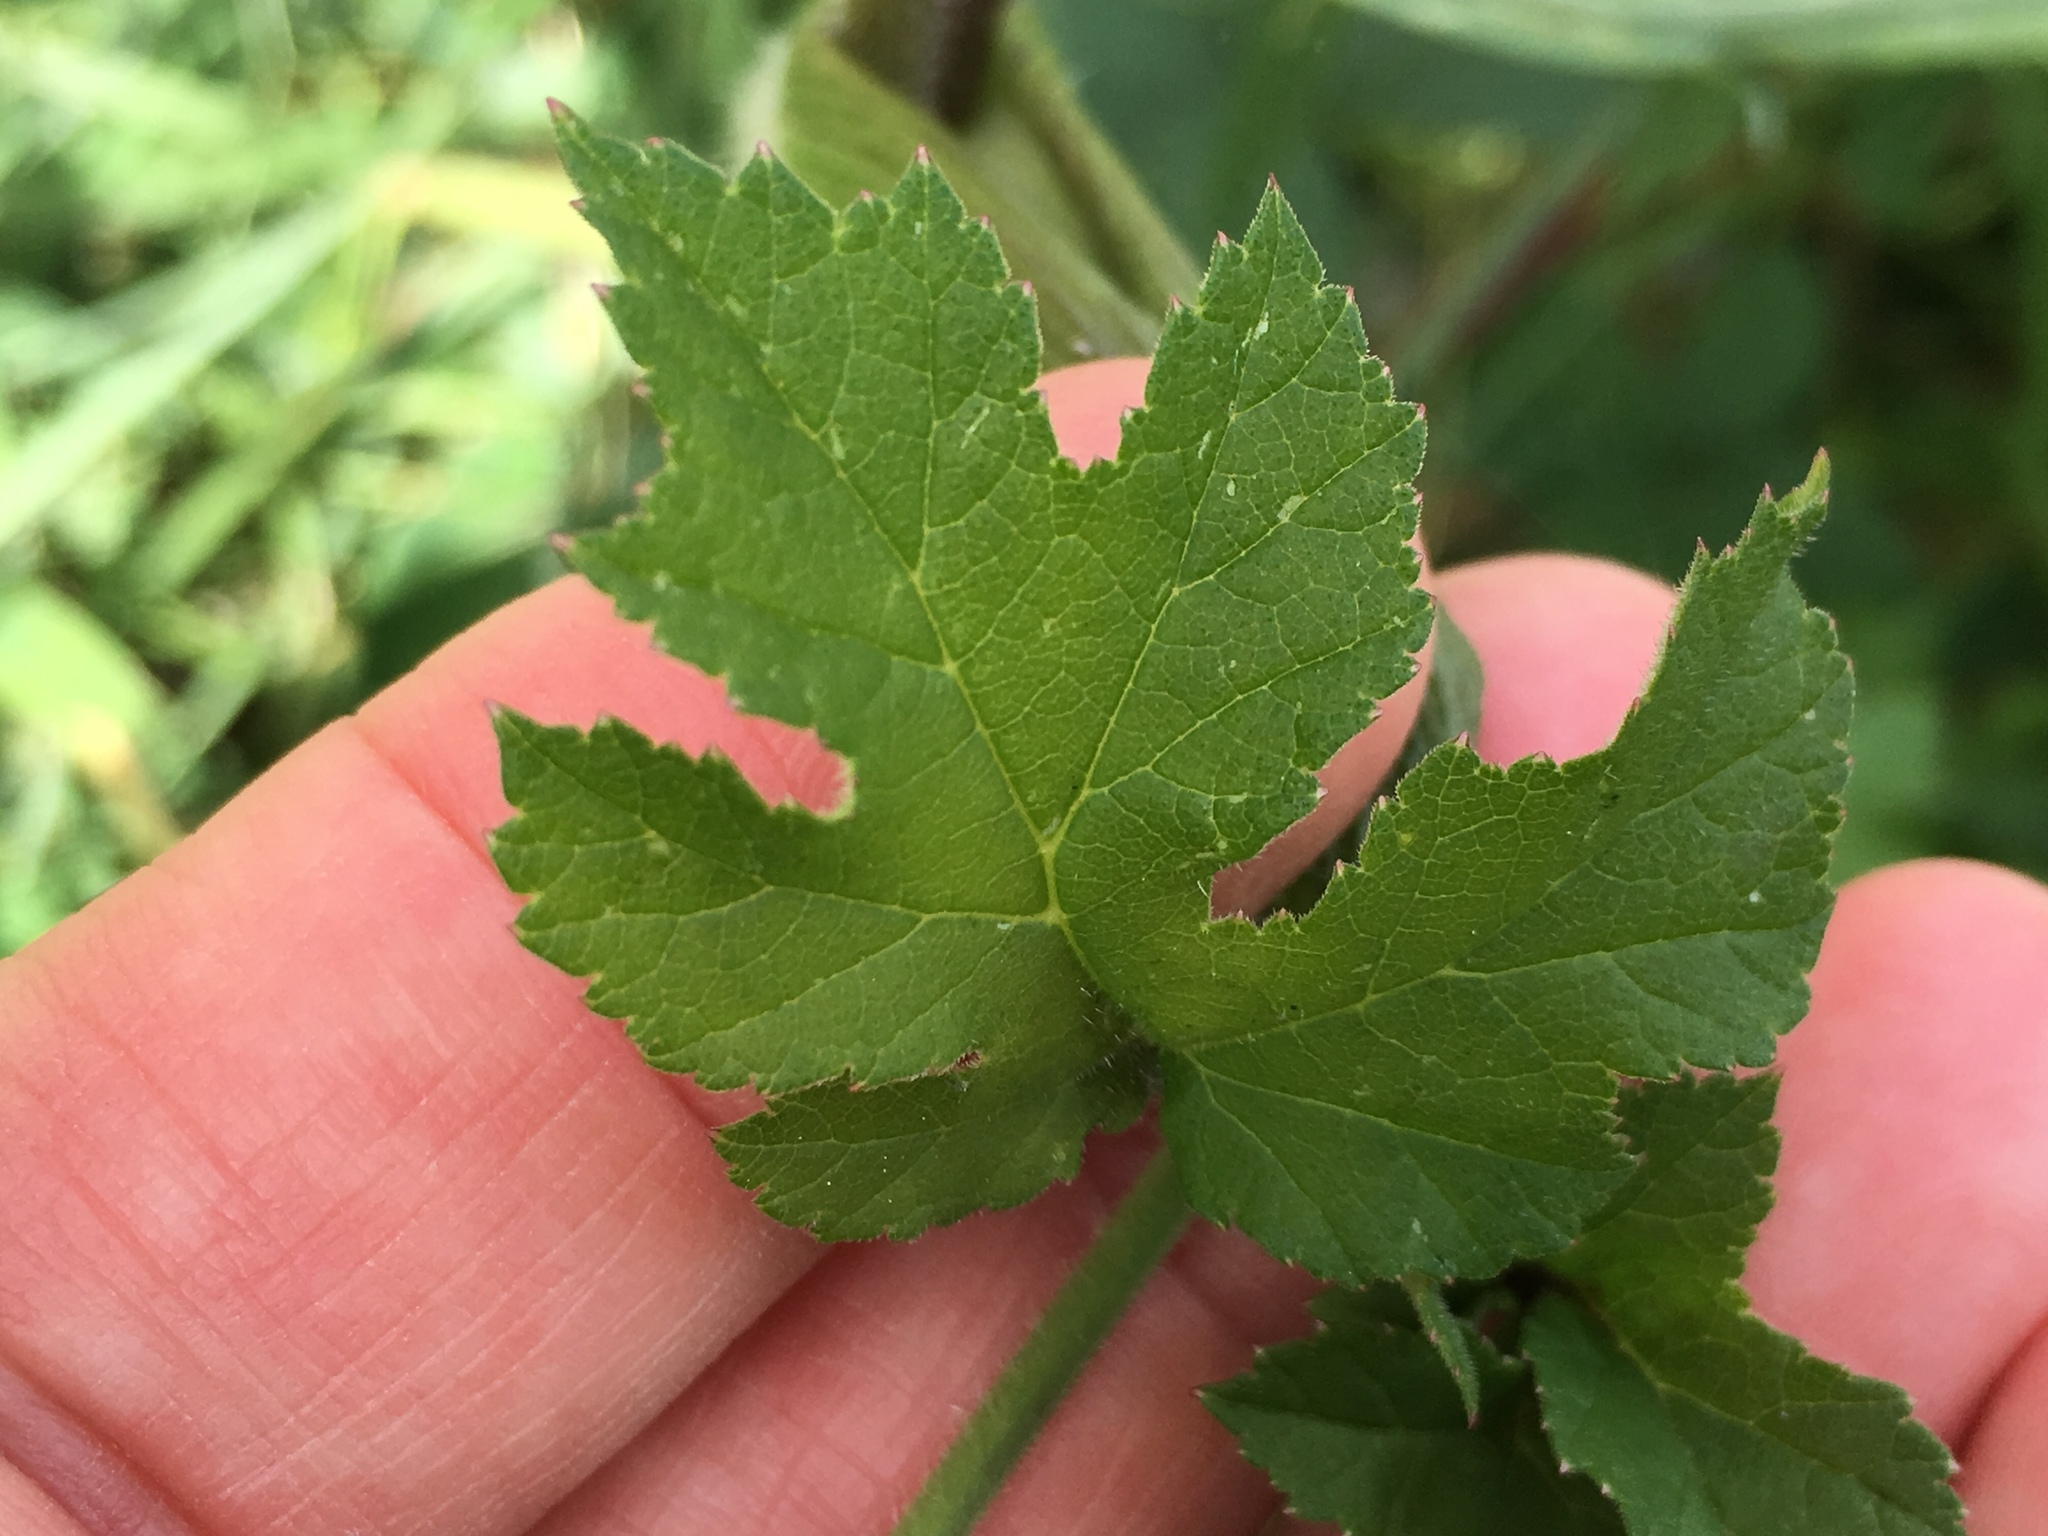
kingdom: Plantae
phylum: Tracheophyta
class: Magnoliopsida
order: Apiales
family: Apiaceae
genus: Heracleum
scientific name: Heracleum sphondylium
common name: Hogweed
